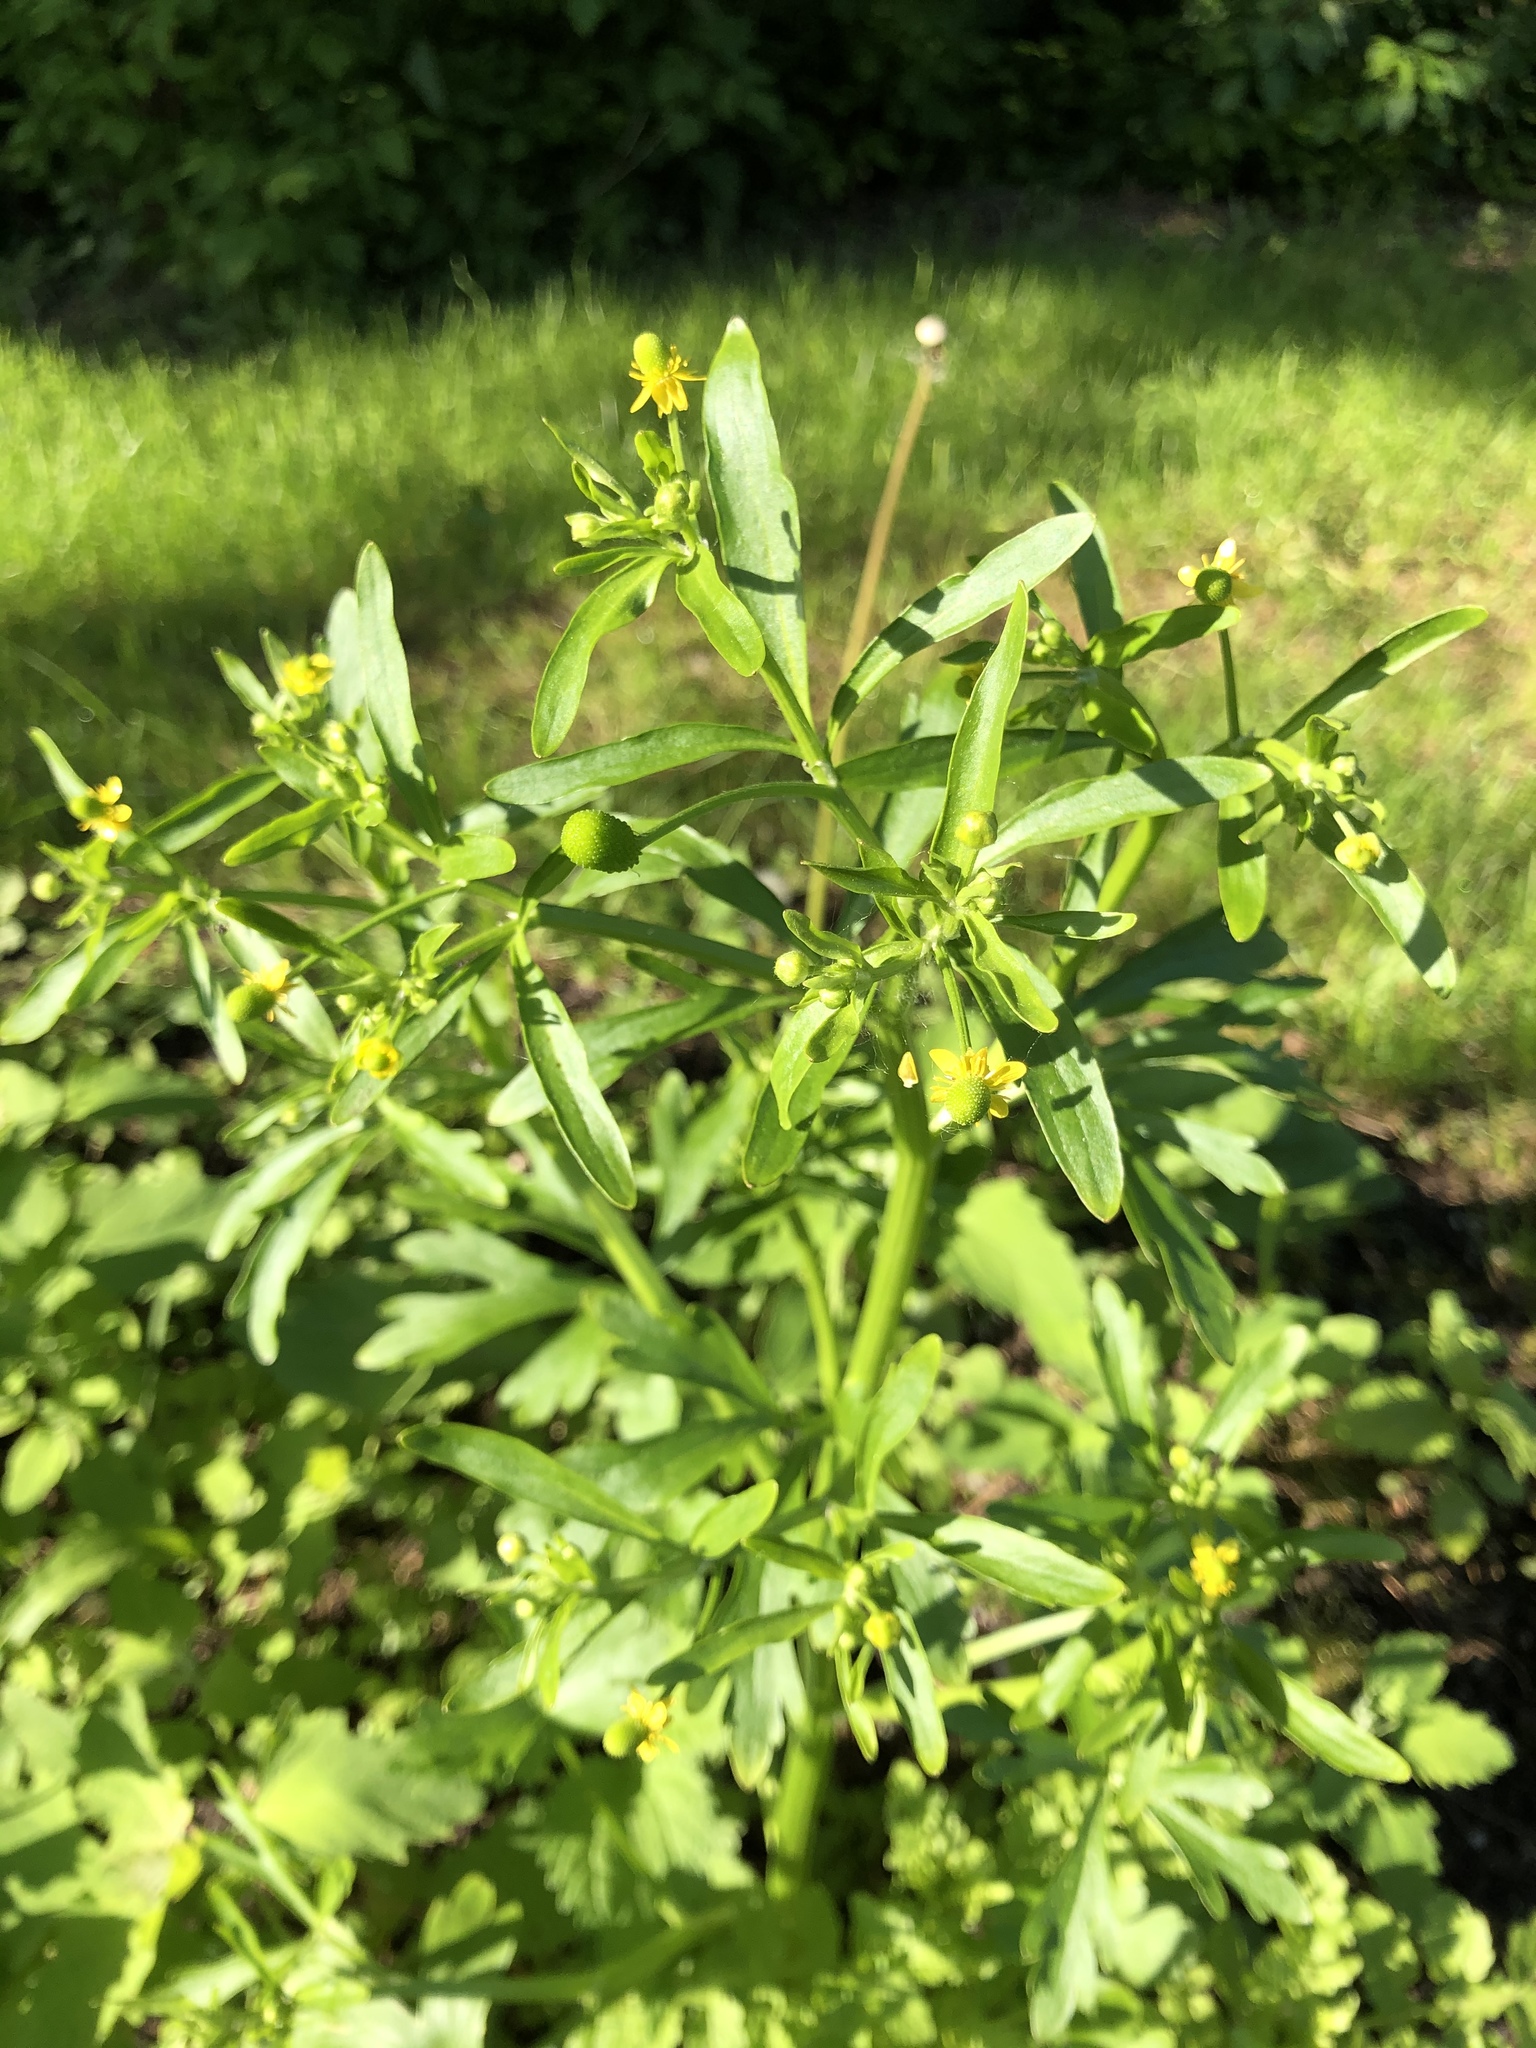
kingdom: Plantae
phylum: Tracheophyta
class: Magnoliopsida
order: Ranunculales
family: Ranunculaceae
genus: Ranunculus
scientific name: Ranunculus sceleratus
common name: Celery-leaved buttercup
